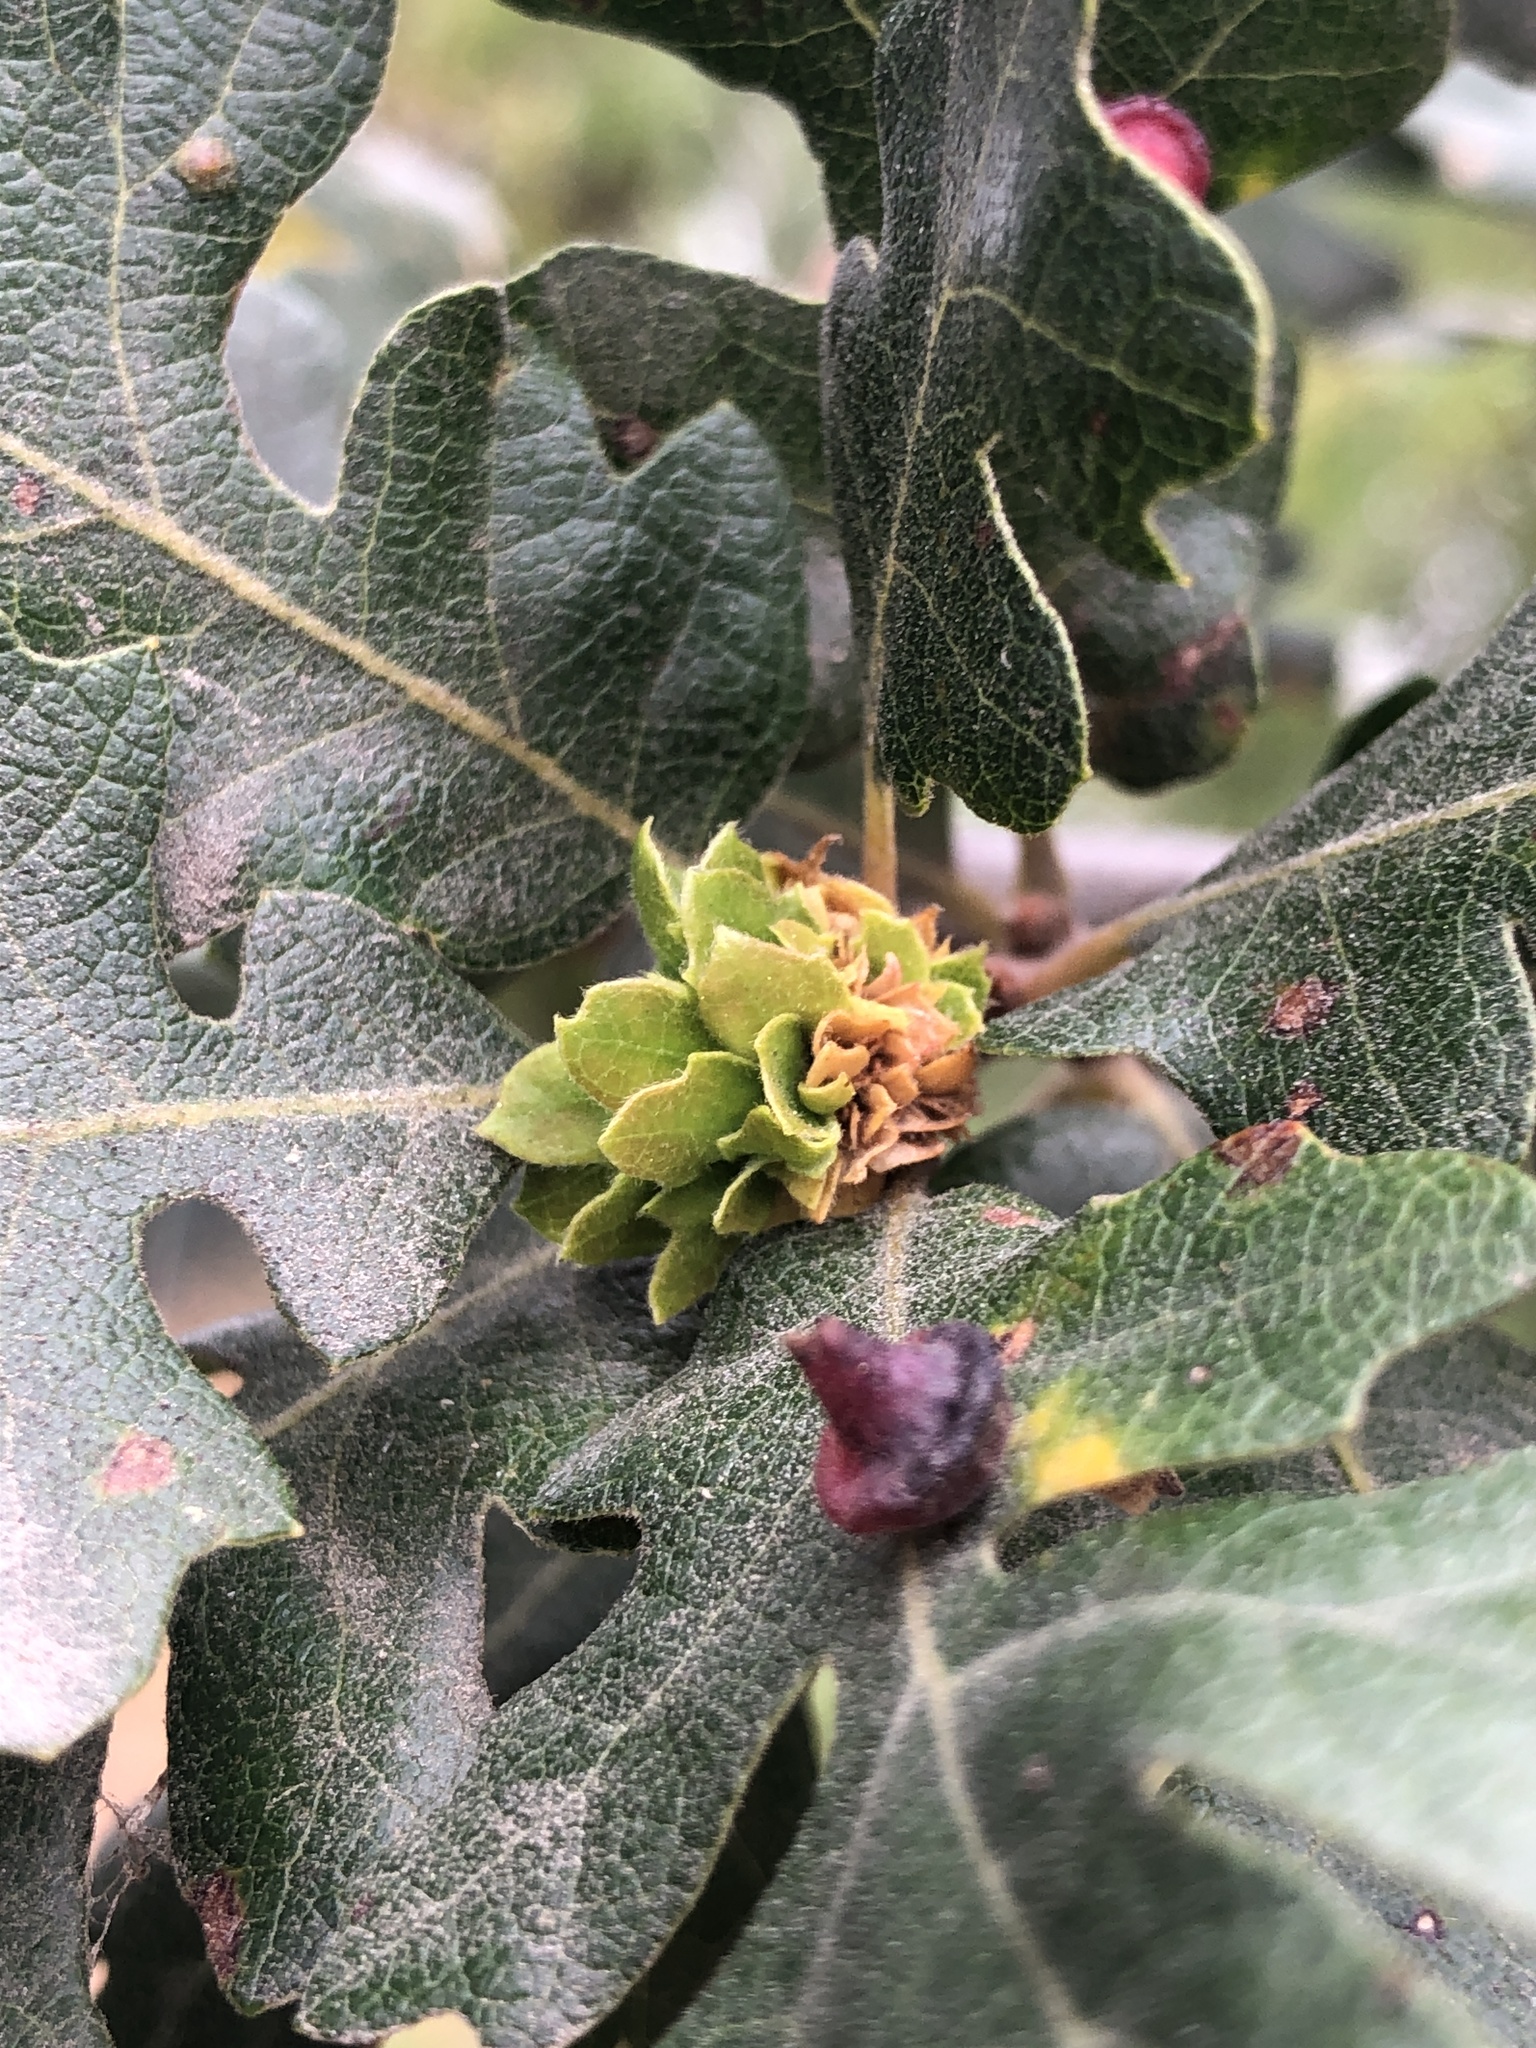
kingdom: Animalia
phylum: Arthropoda
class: Insecta
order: Hymenoptera
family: Cynipidae
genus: Andricus
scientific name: Andricus
